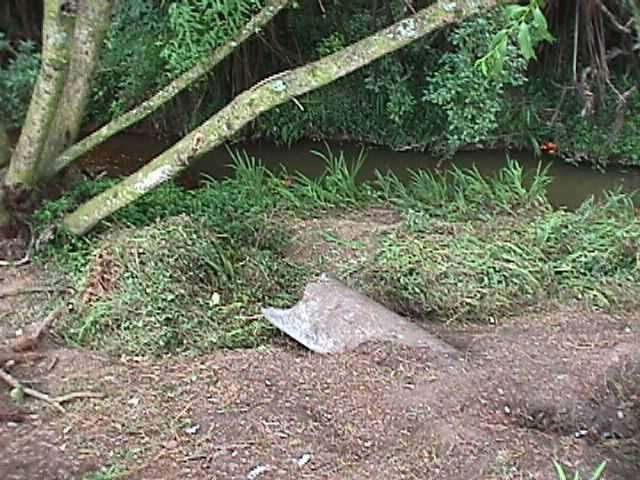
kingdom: Plantae
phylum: Tracheophyta
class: Liliopsida
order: Asparagales
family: Iridaceae
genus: Crocosmia
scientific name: Crocosmia crocosmiiflora
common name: Montbretia
